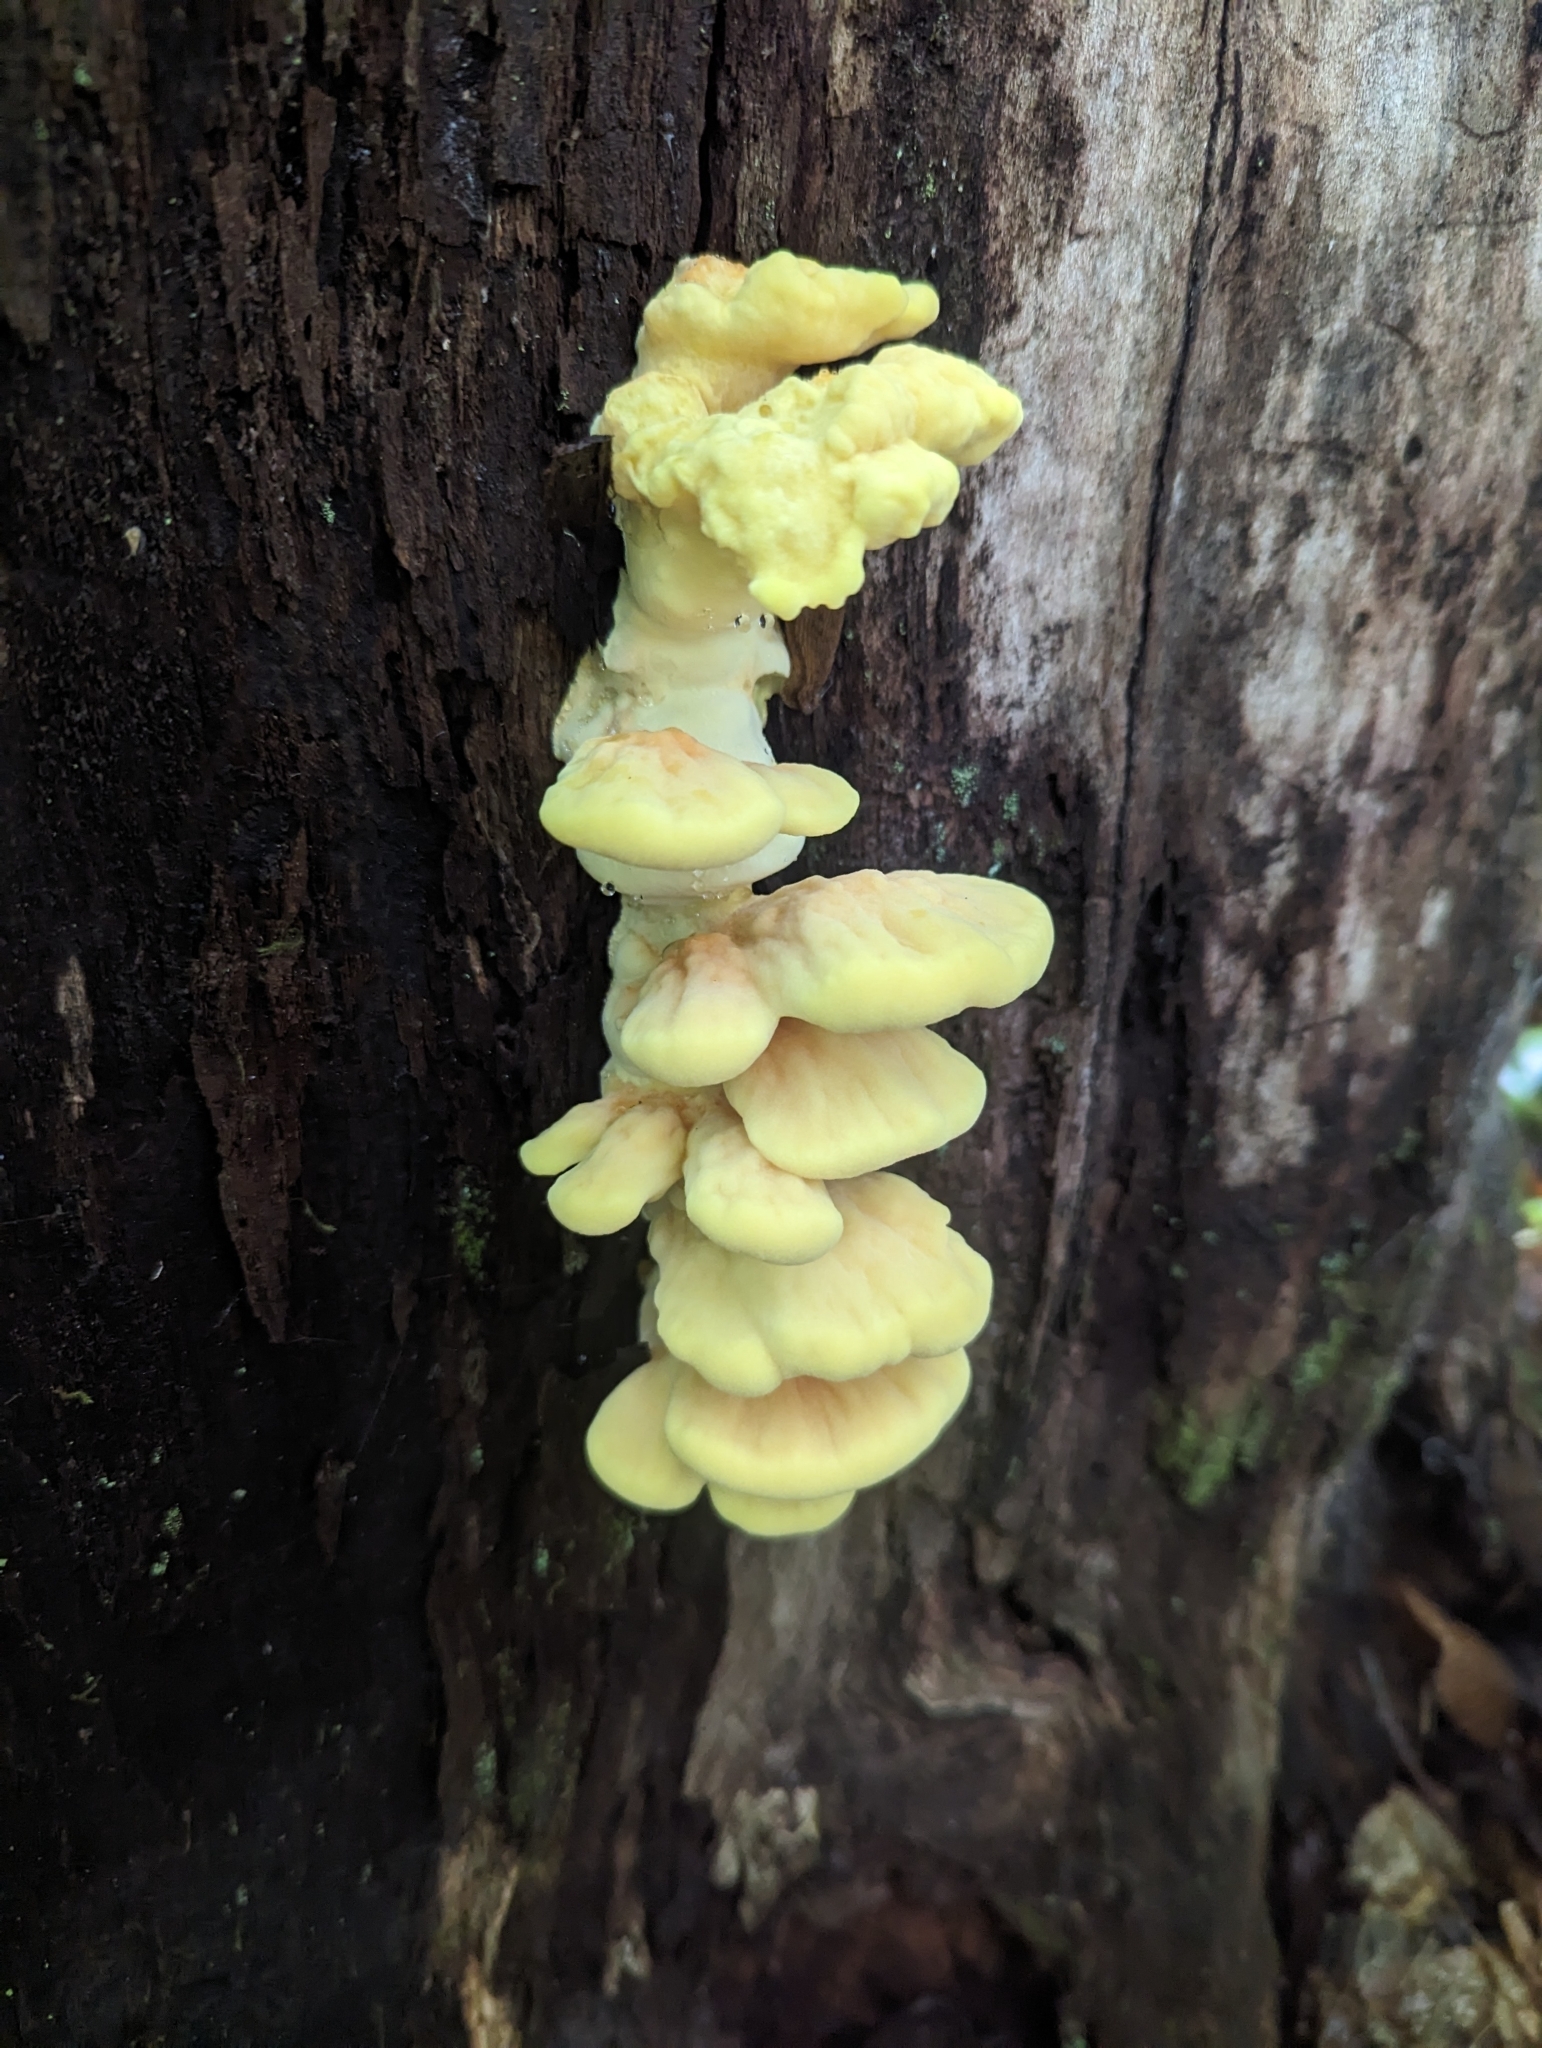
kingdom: Fungi
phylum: Basidiomycota
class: Agaricomycetes
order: Polyporales
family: Laetiporaceae
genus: Laetiporus
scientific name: Laetiporus sulphureus
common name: Chicken of the woods
